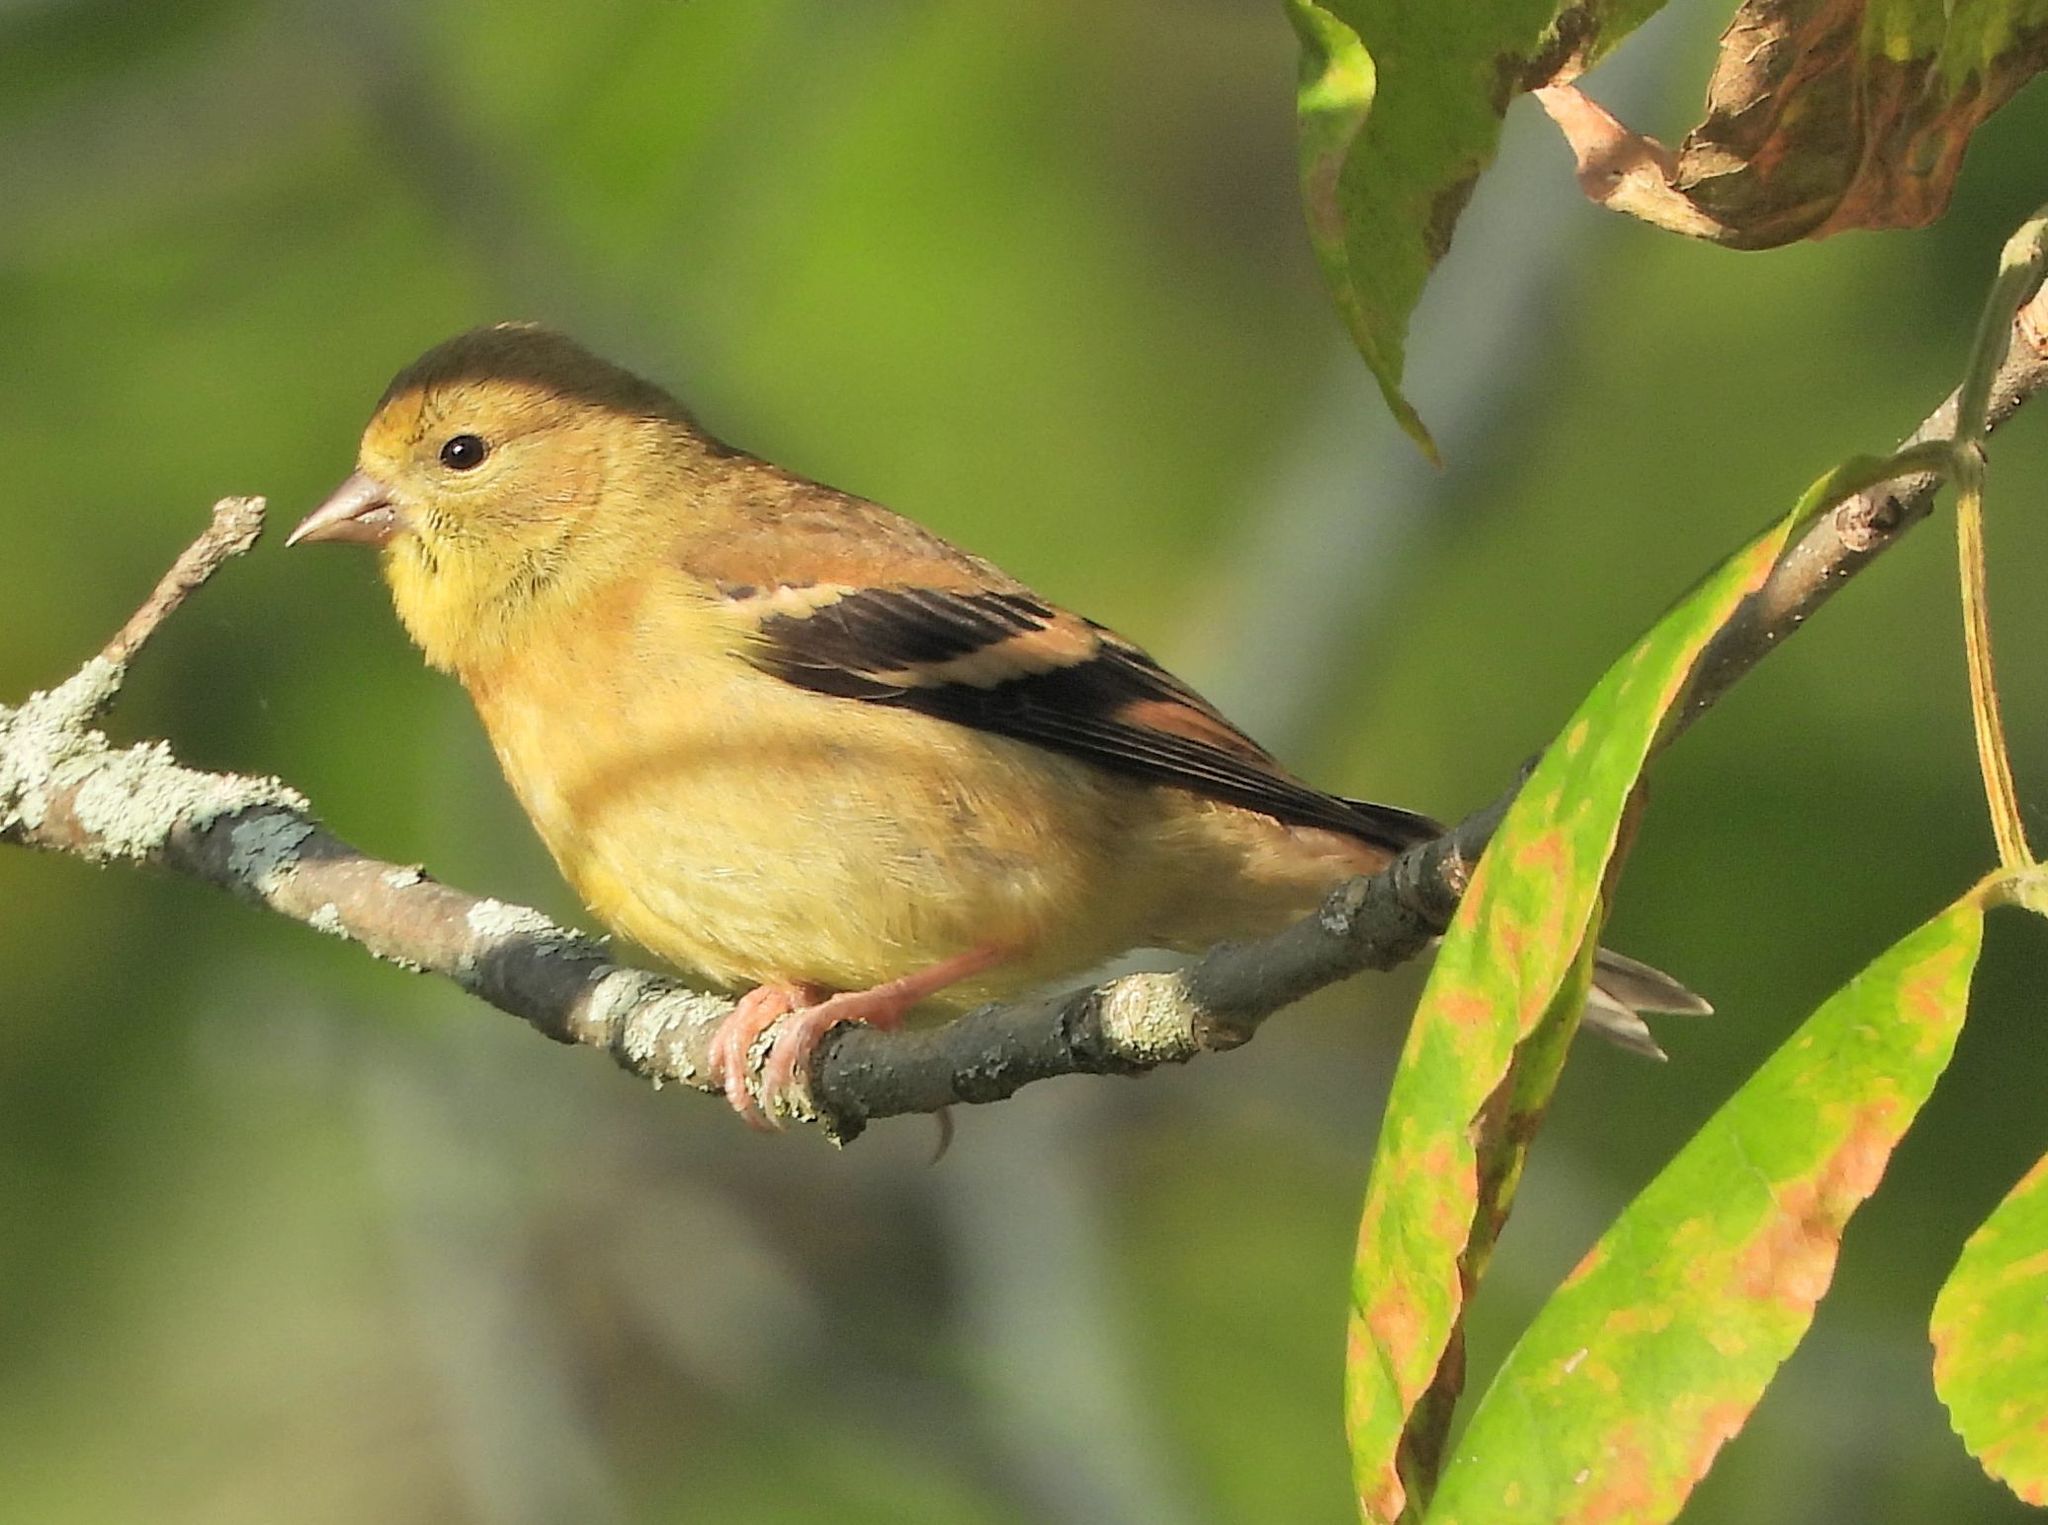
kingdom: Animalia
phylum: Chordata
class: Aves
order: Passeriformes
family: Fringillidae
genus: Spinus
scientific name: Spinus tristis
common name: American goldfinch
